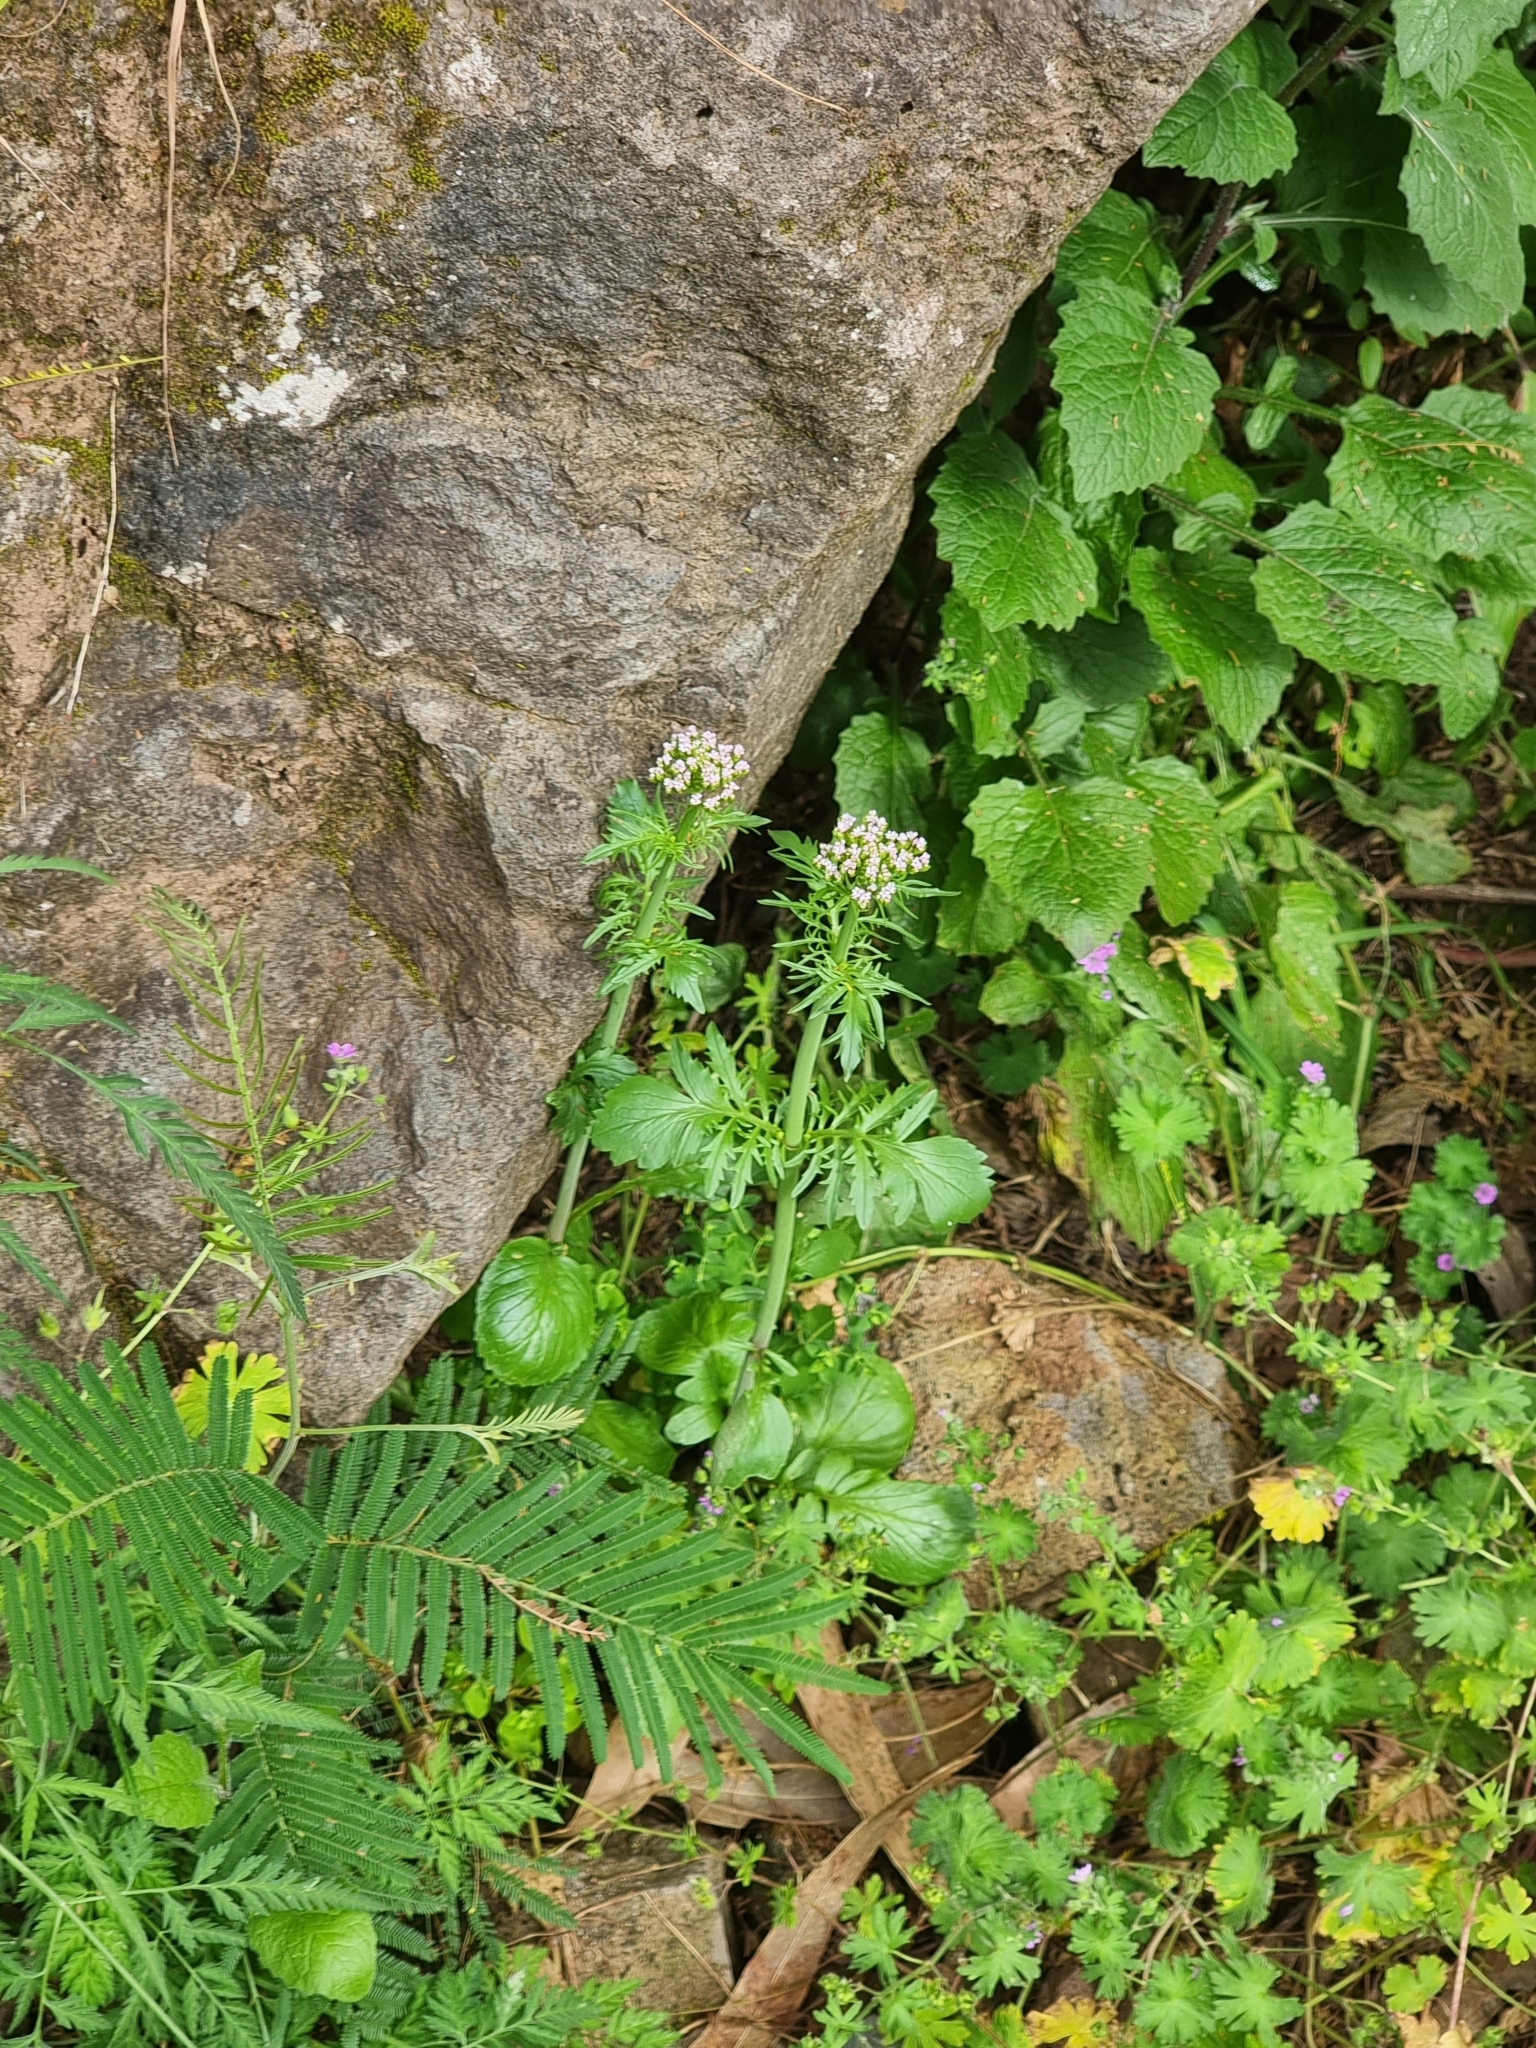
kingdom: Plantae
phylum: Tracheophyta
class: Magnoliopsida
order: Dipsacales
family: Caprifoliaceae
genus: Centranthus
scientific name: Centranthus calcitrapae
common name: Annual valerian
